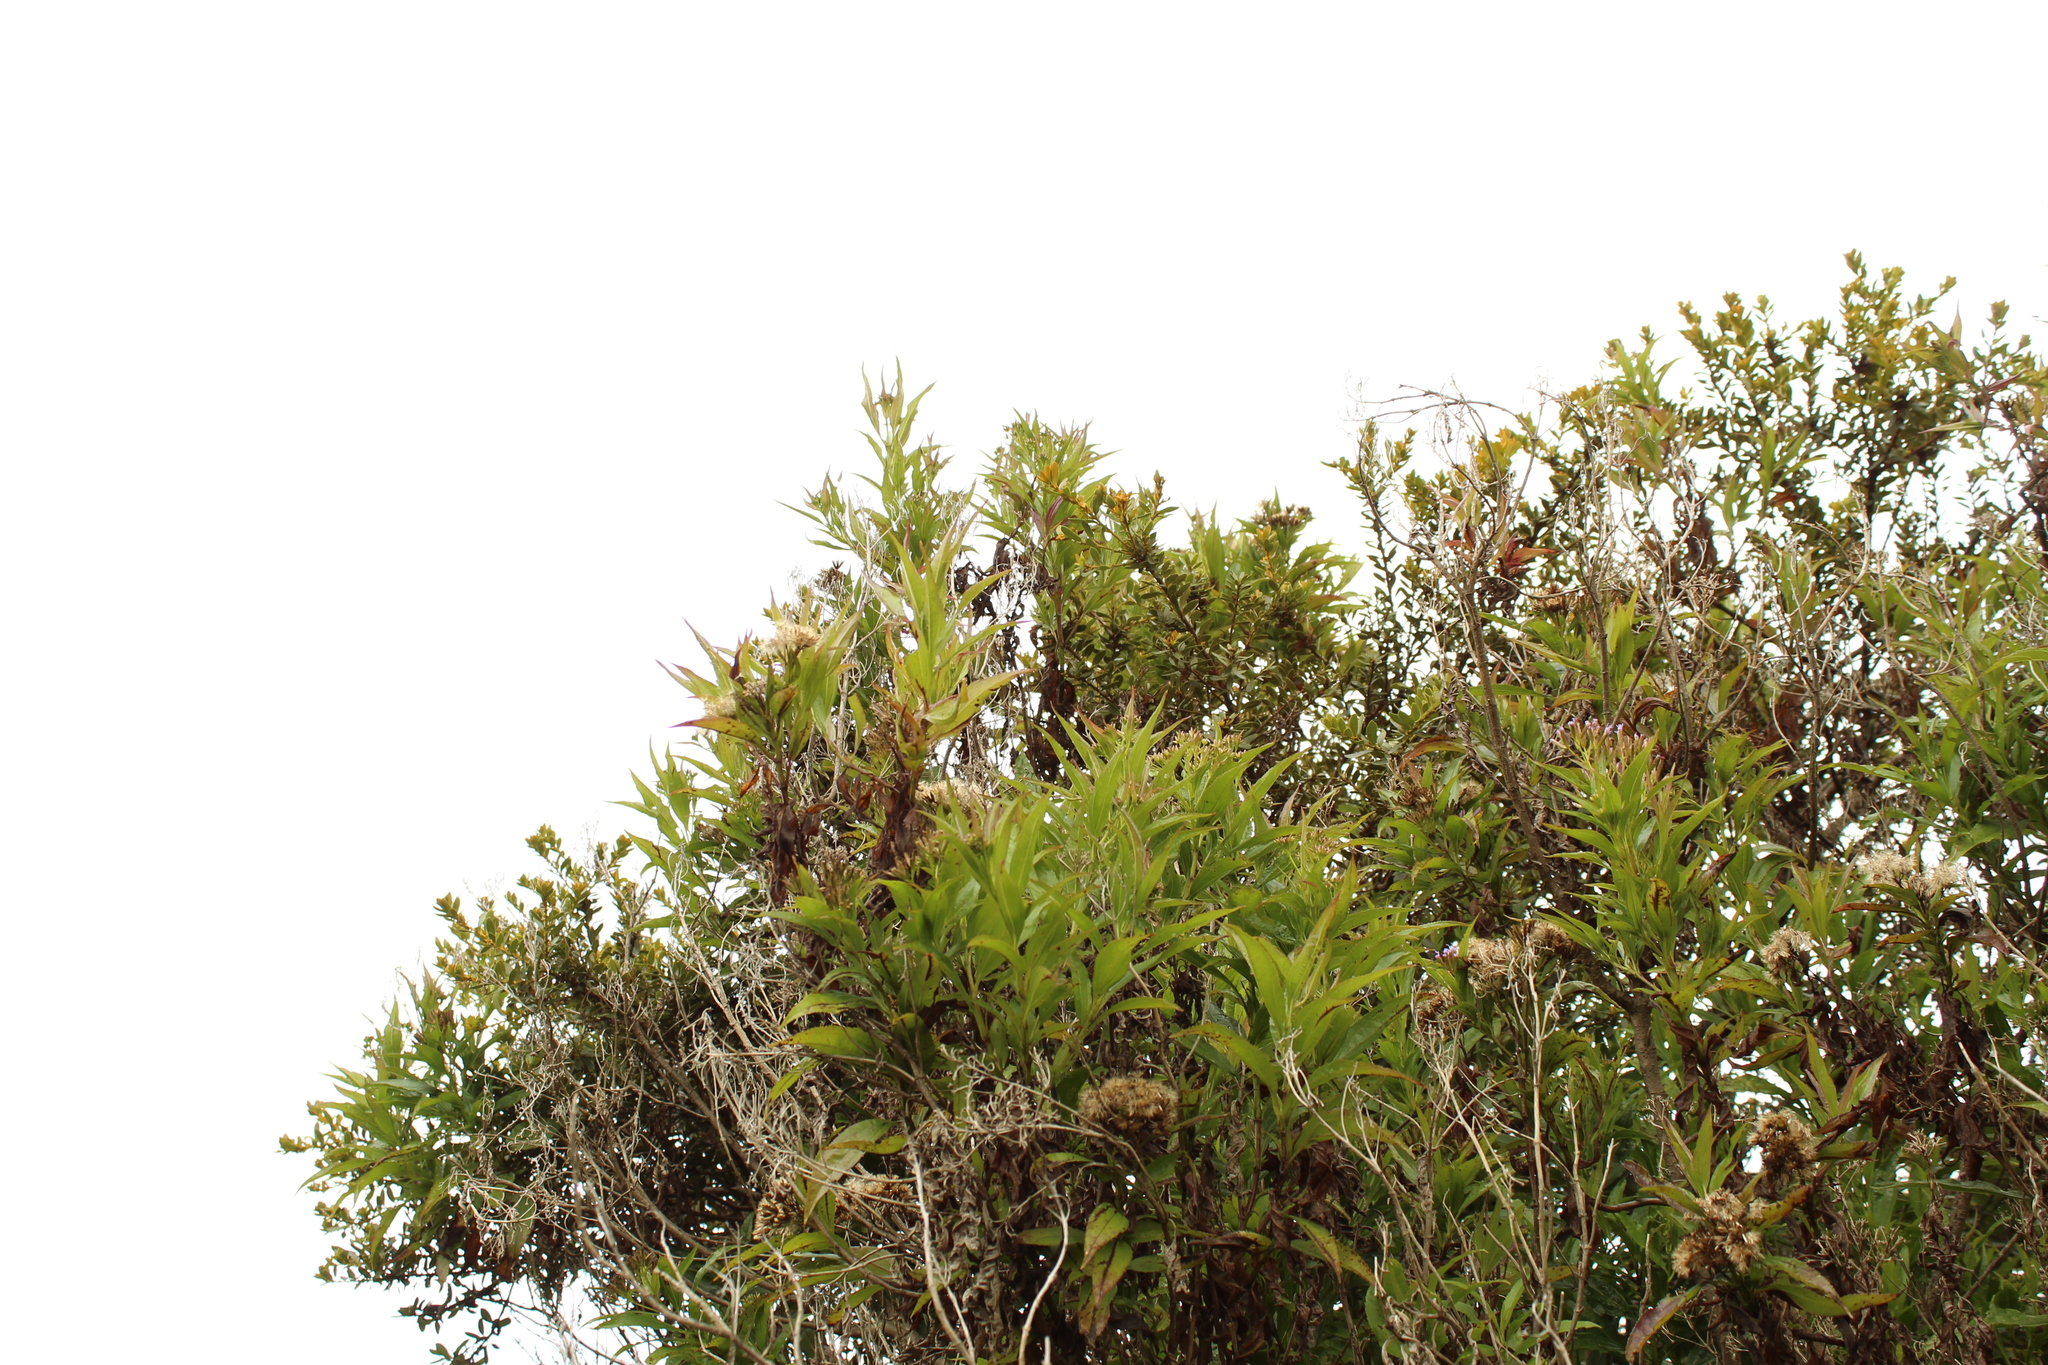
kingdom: Plantae
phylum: Tracheophyta
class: Magnoliopsida
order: Asterales
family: Asteraceae
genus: Chromolaena
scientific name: Chromolaena perglabra
